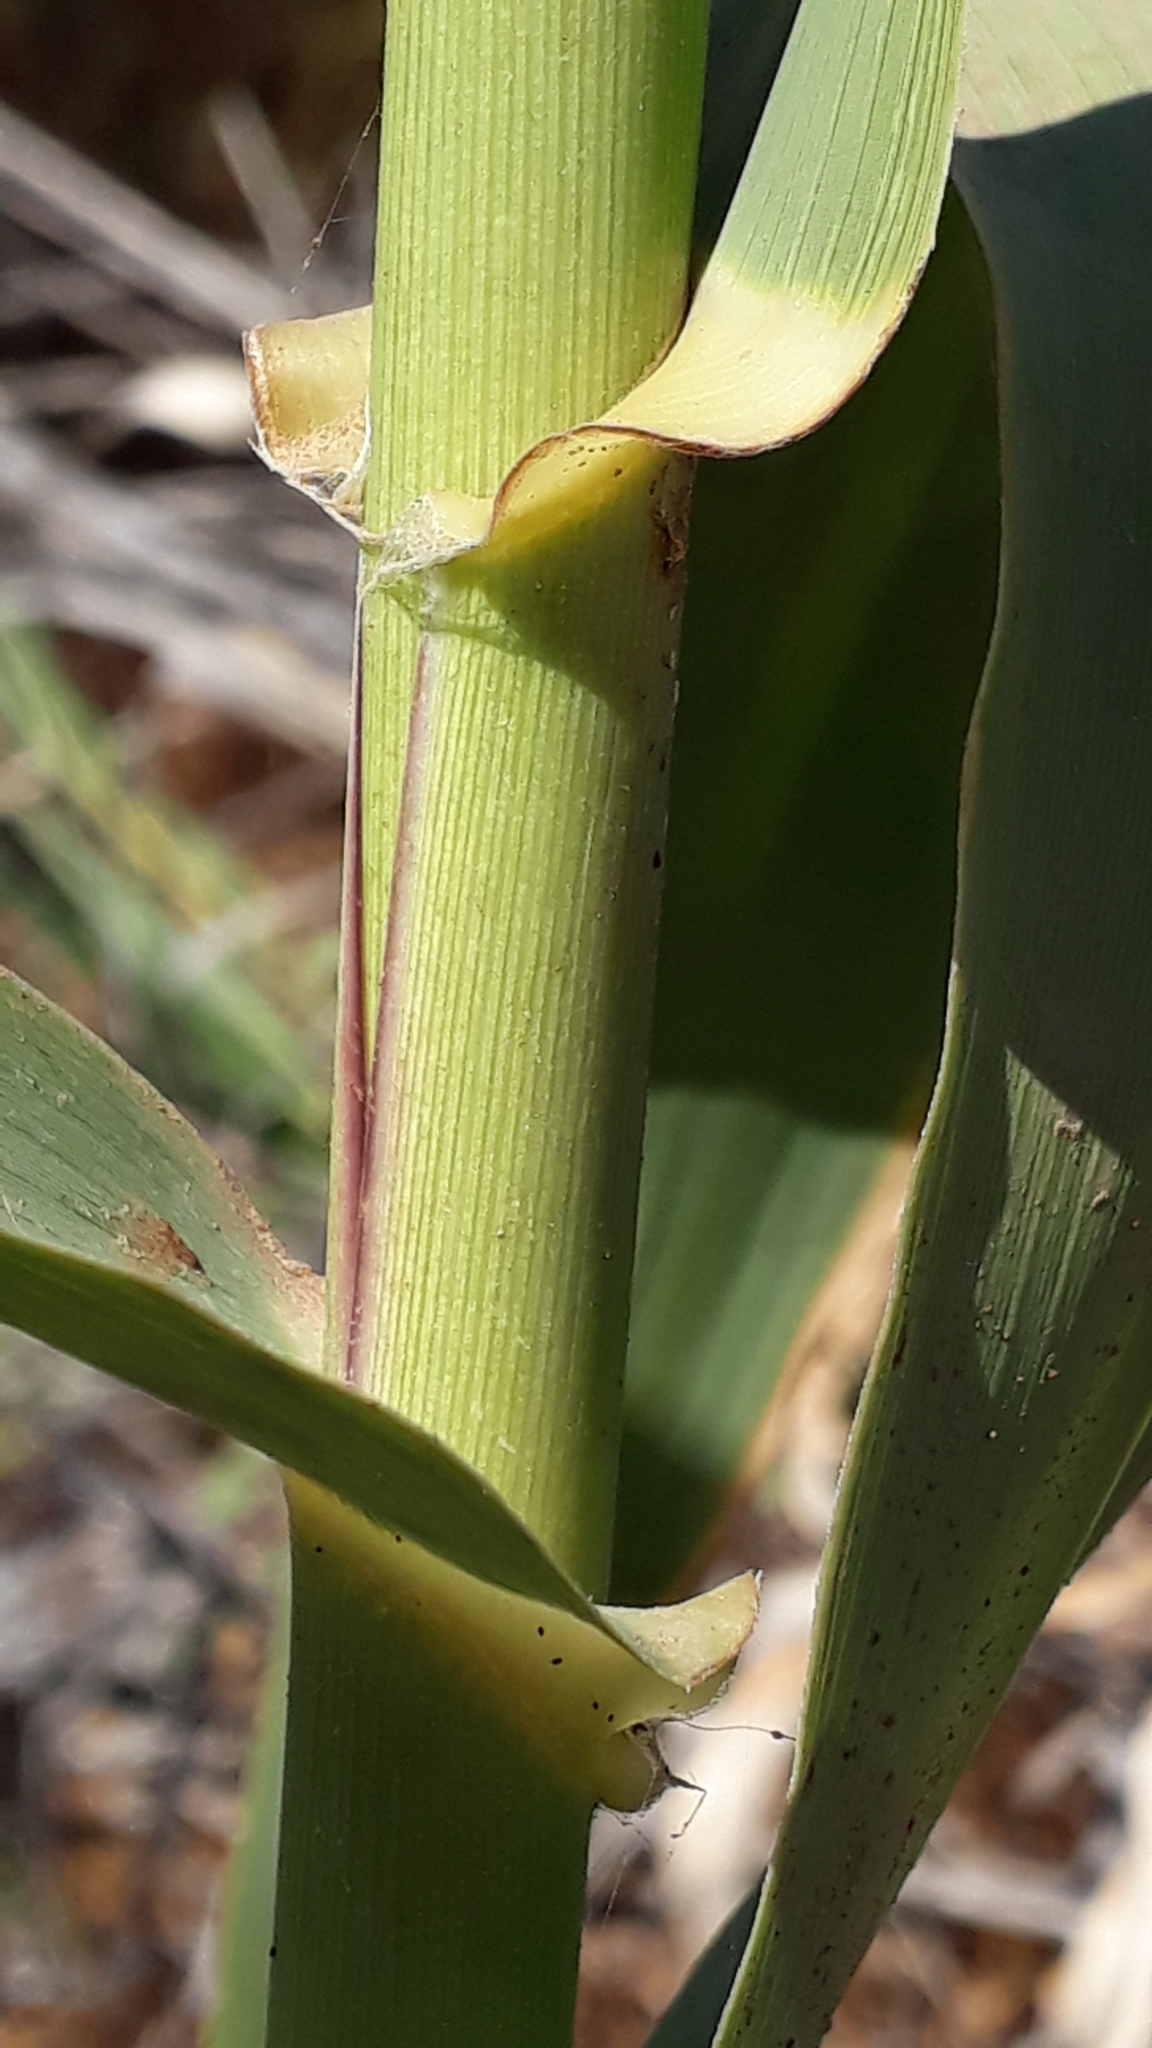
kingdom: Plantae
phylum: Tracheophyta
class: Liliopsida
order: Poales
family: Poaceae
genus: Arundo
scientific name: Arundo donax
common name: Giant reed
